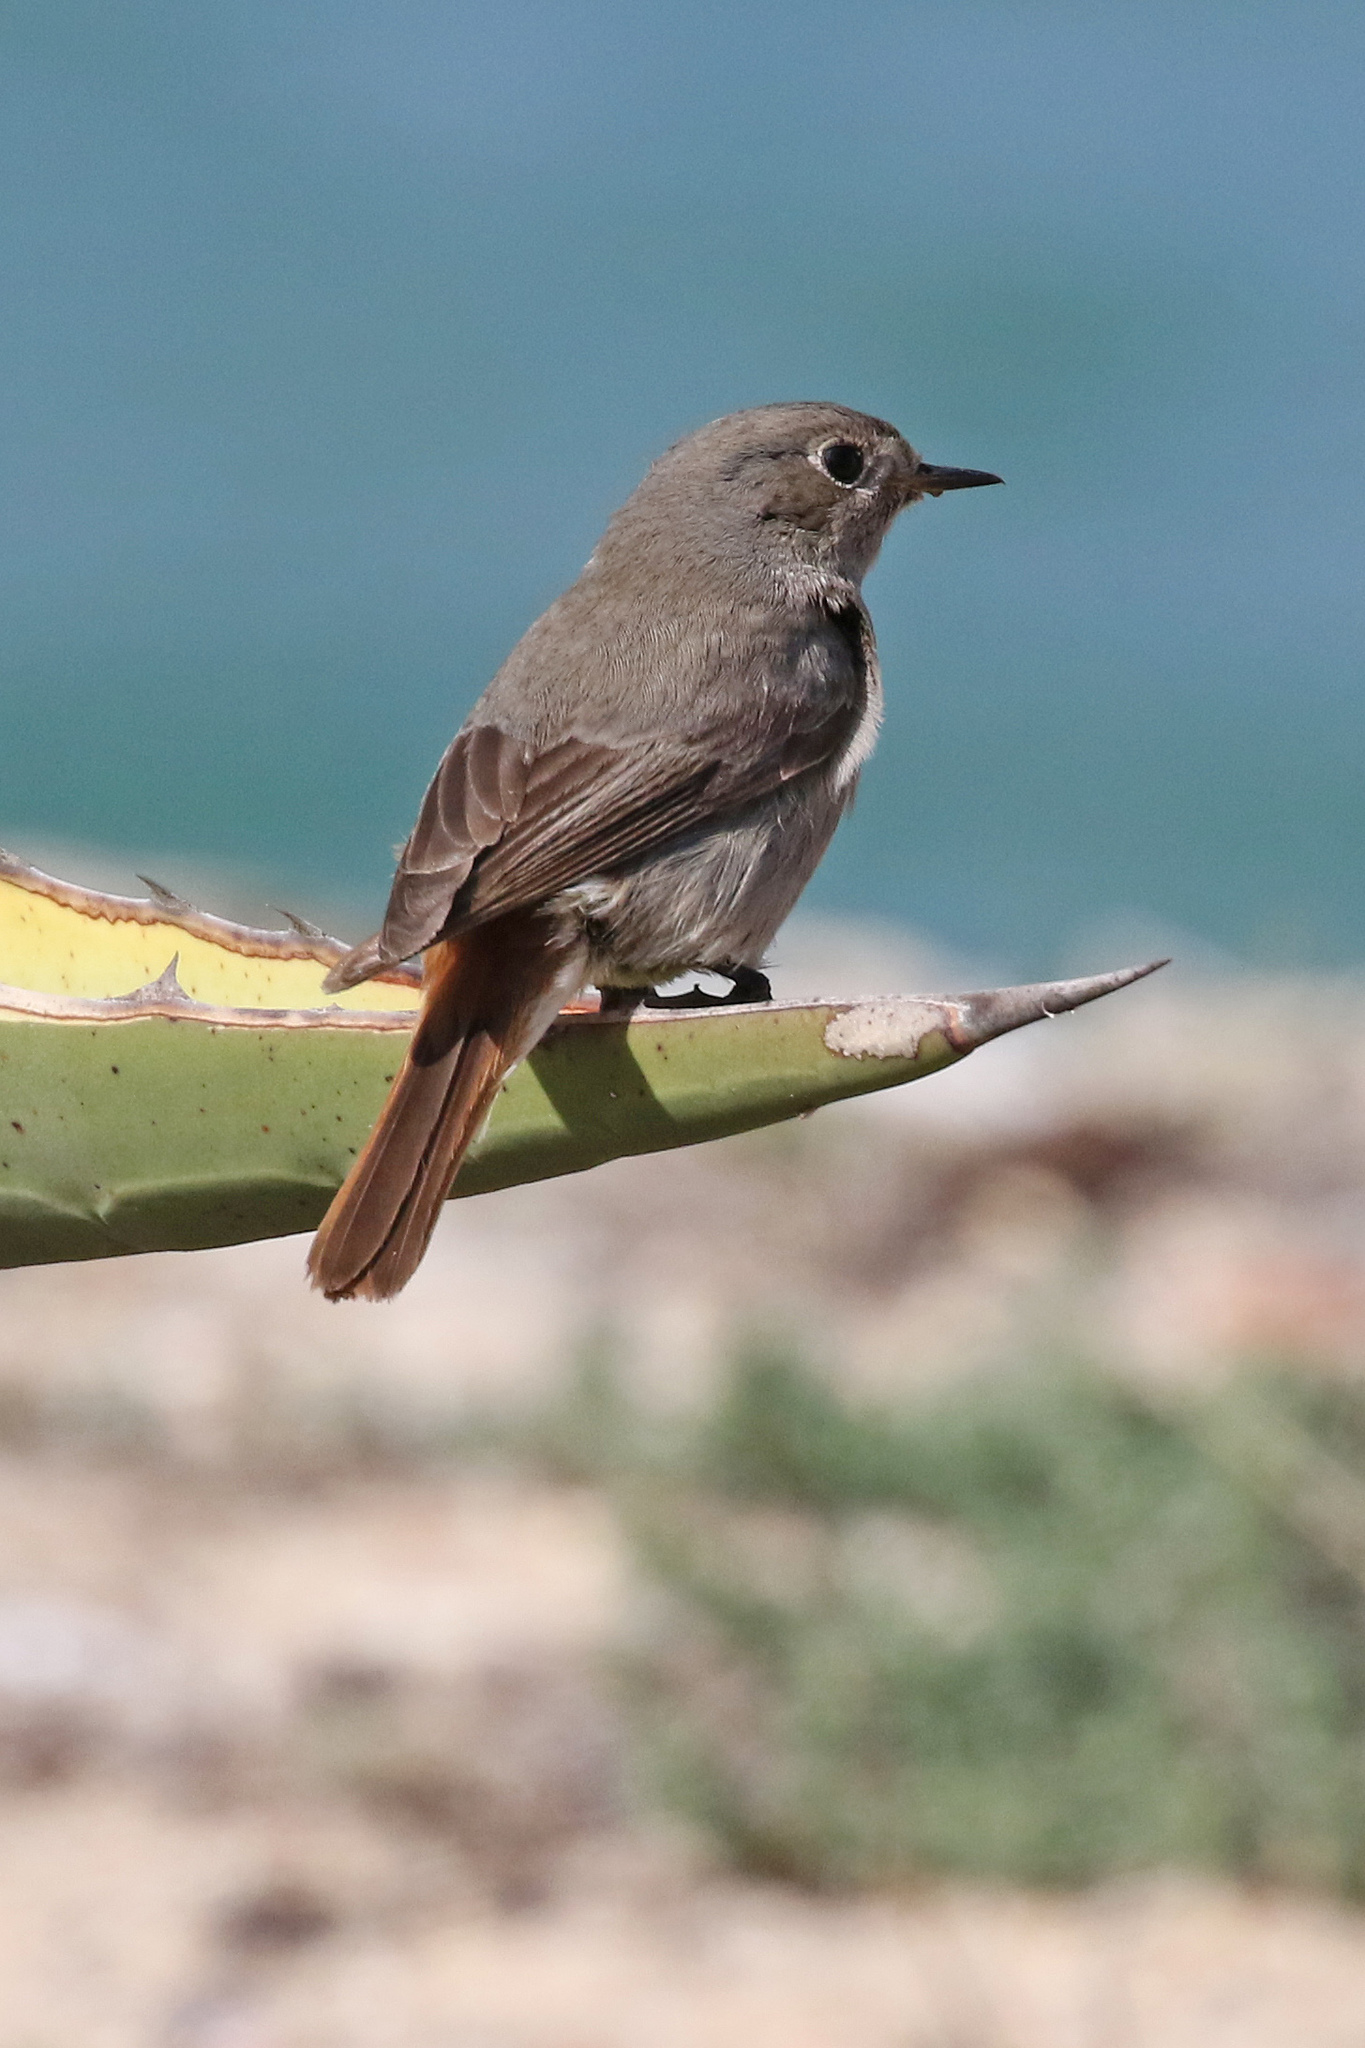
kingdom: Animalia
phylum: Chordata
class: Aves
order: Passeriformes
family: Muscicapidae
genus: Phoenicurus
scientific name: Phoenicurus ochruros
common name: Black redstart
